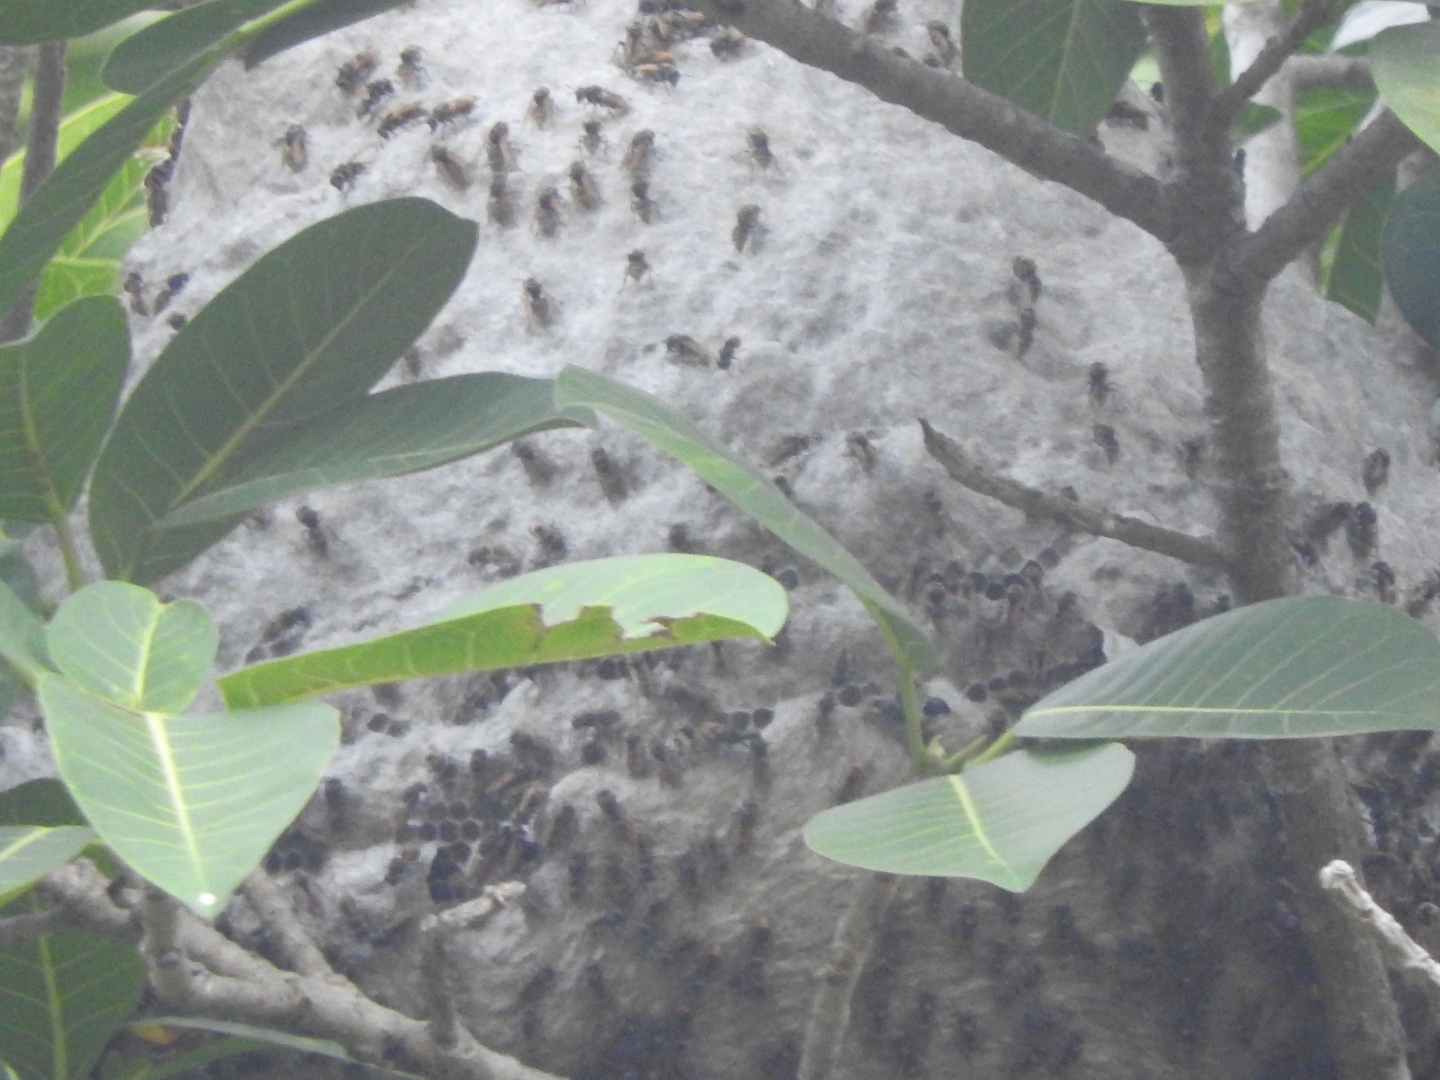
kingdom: Animalia
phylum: Arthropoda
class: Insecta
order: Hymenoptera
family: Vespidae
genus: Brachygastra
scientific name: Brachygastra mellifica
